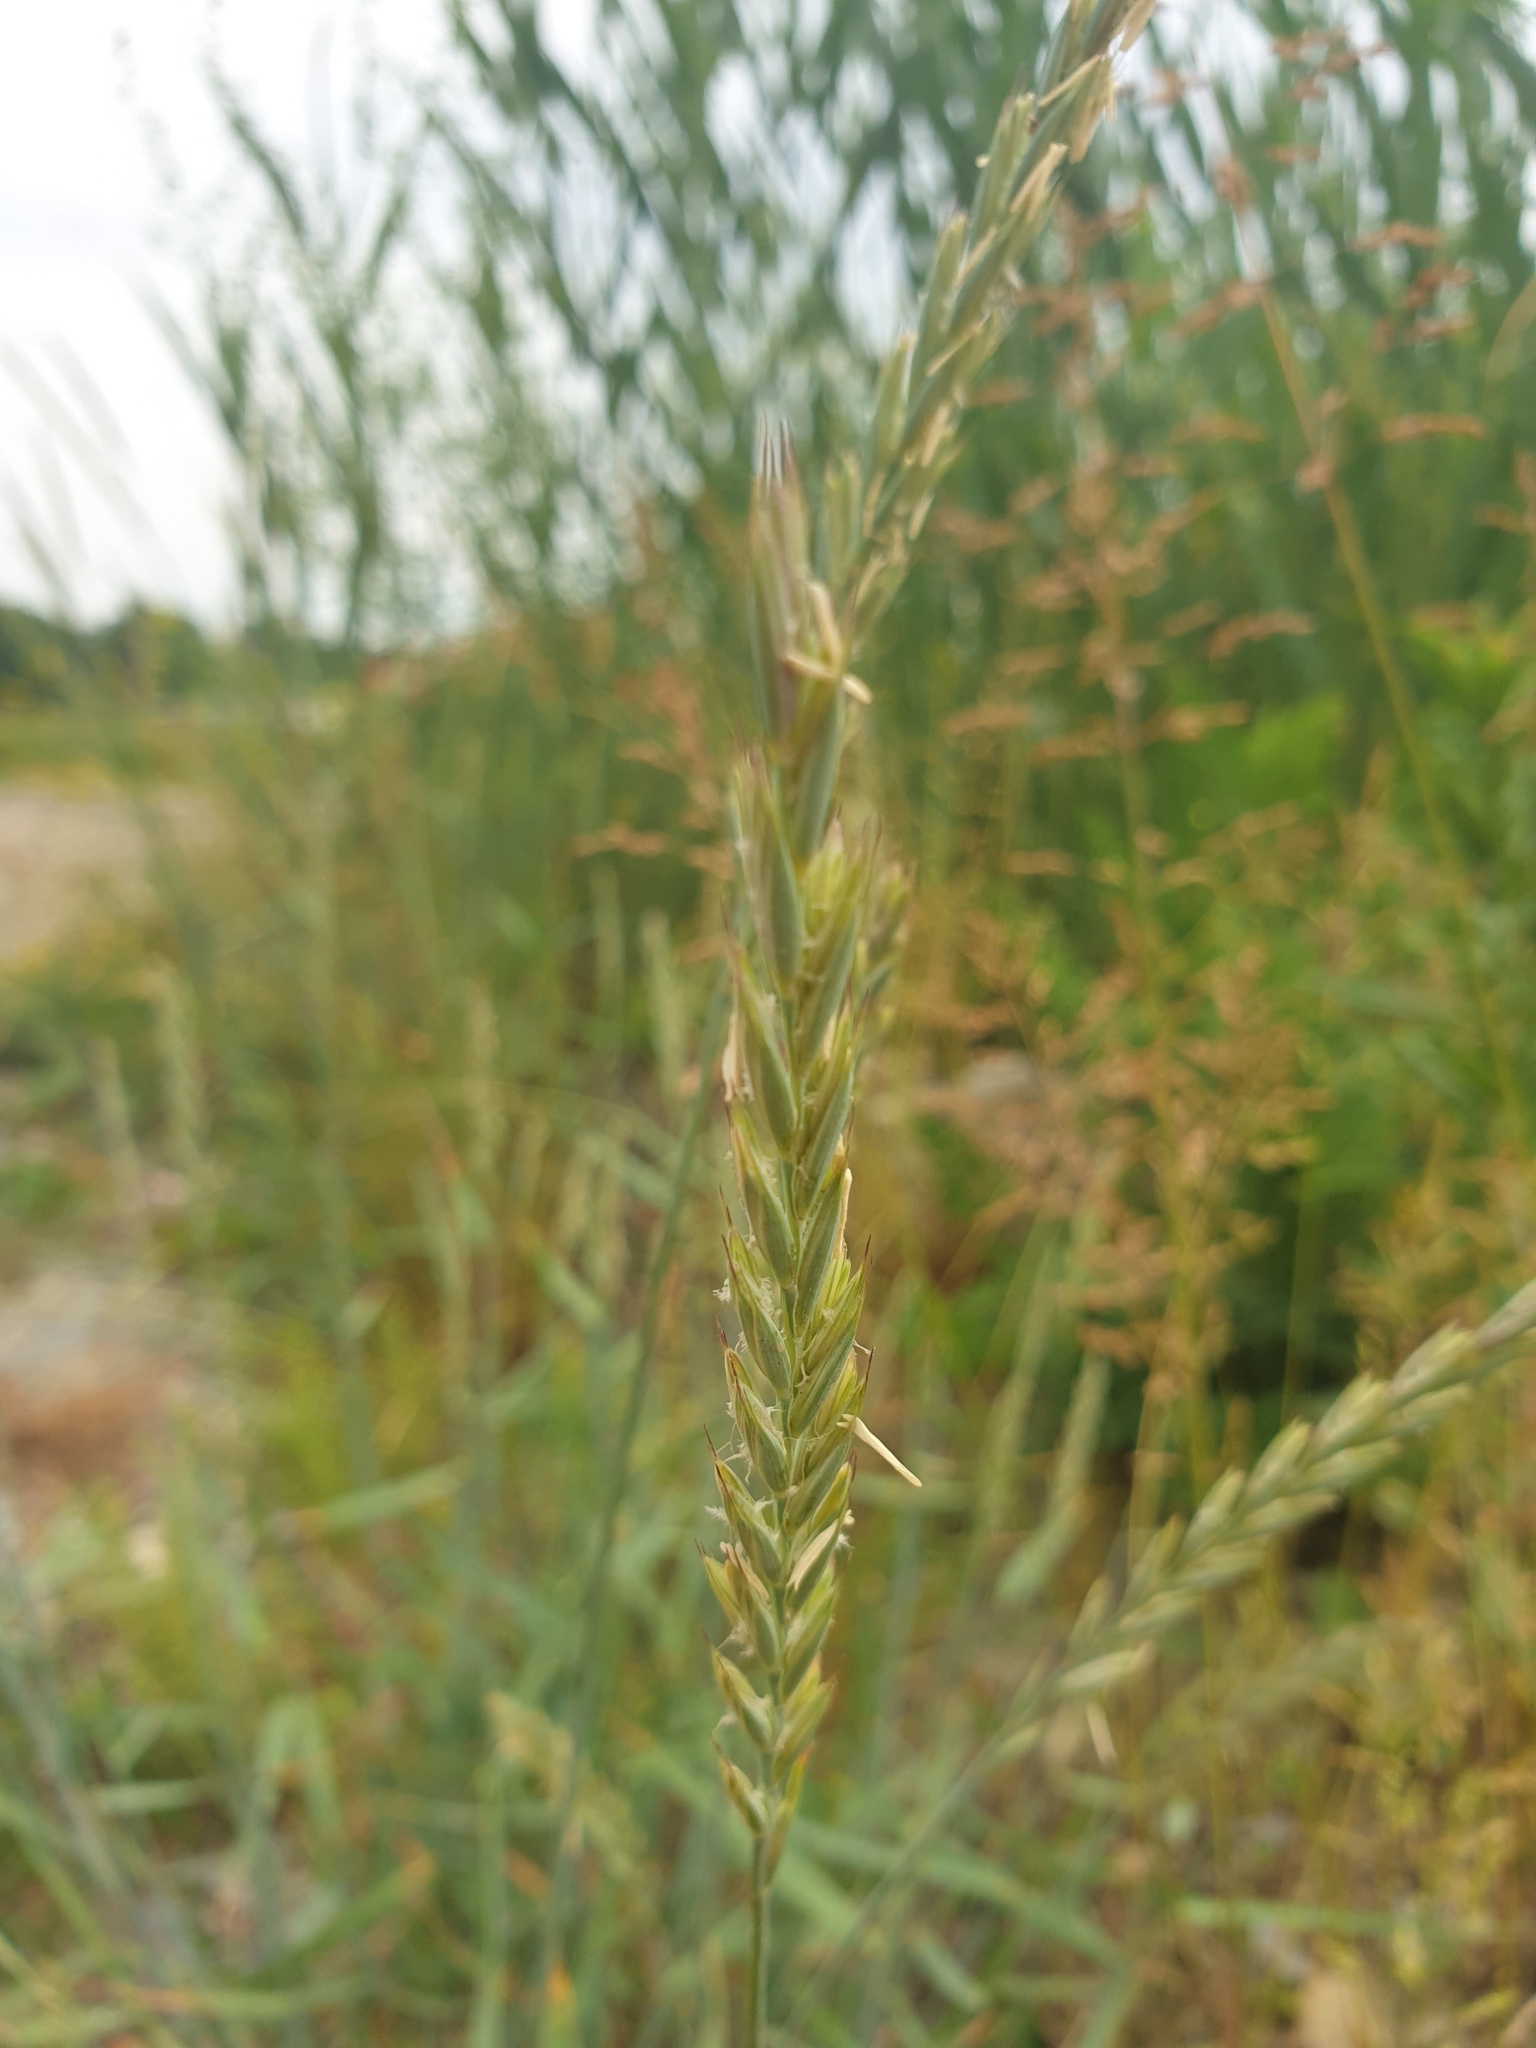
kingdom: Plantae
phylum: Tracheophyta
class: Liliopsida
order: Poales
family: Poaceae
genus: Elymus
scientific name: Elymus repens
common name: Quackgrass
